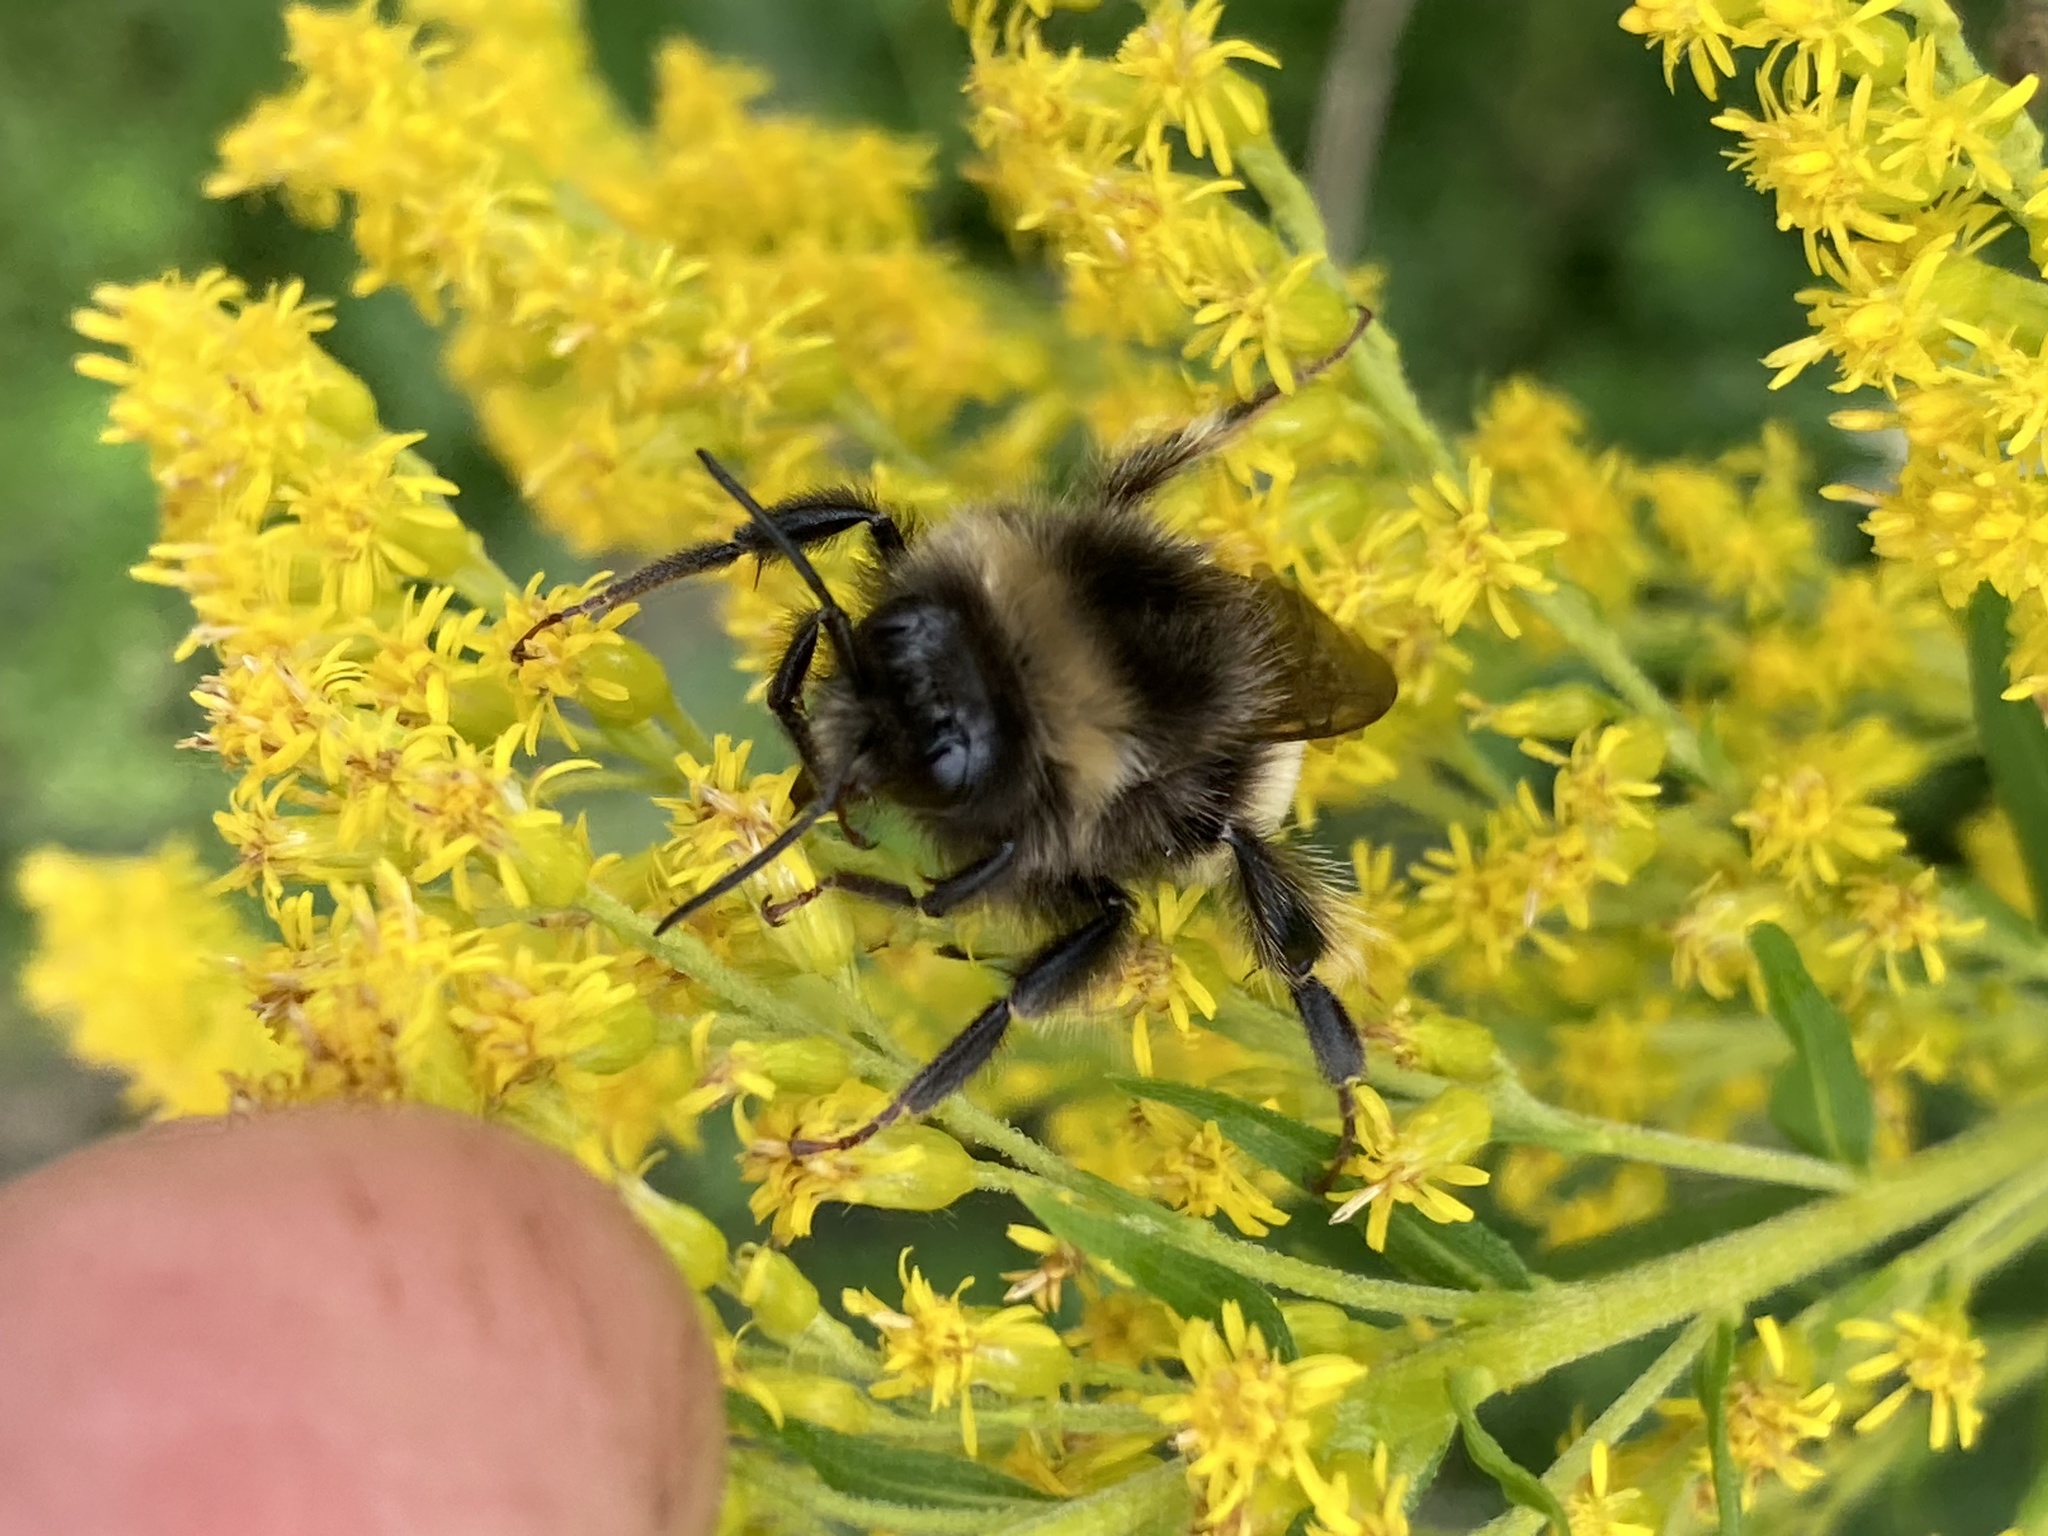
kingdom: Animalia
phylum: Arthropoda
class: Insecta
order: Hymenoptera
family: Apidae
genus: Bombus
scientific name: Bombus terricola
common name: Yellow-banded bumble bee
